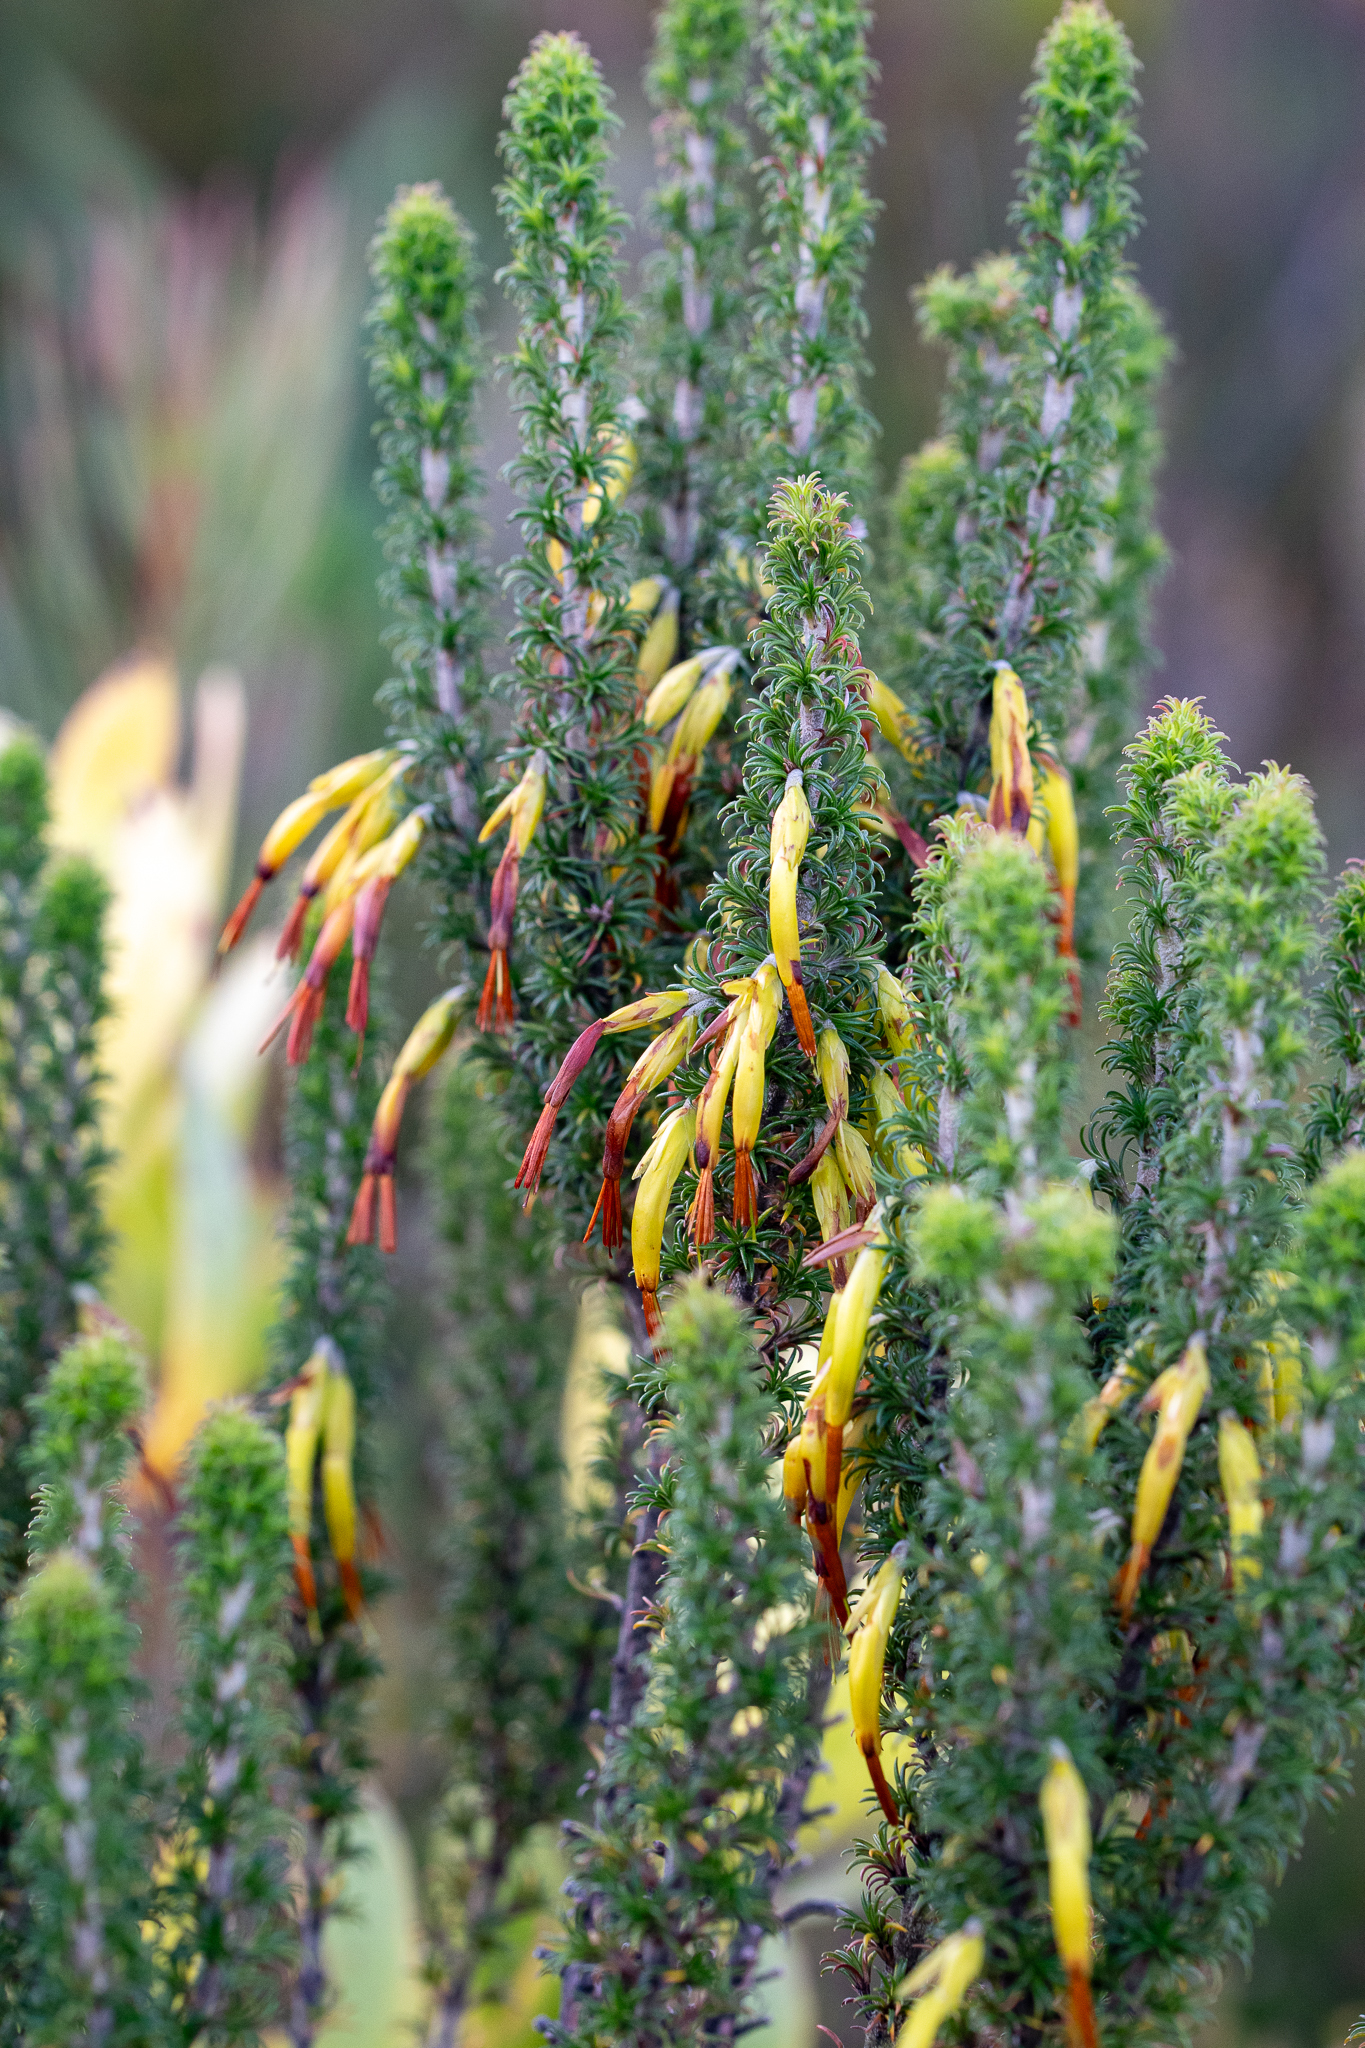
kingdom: Plantae
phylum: Tracheophyta
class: Magnoliopsida
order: Ericales
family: Ericaceae
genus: Erica
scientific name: Erica coccinea
